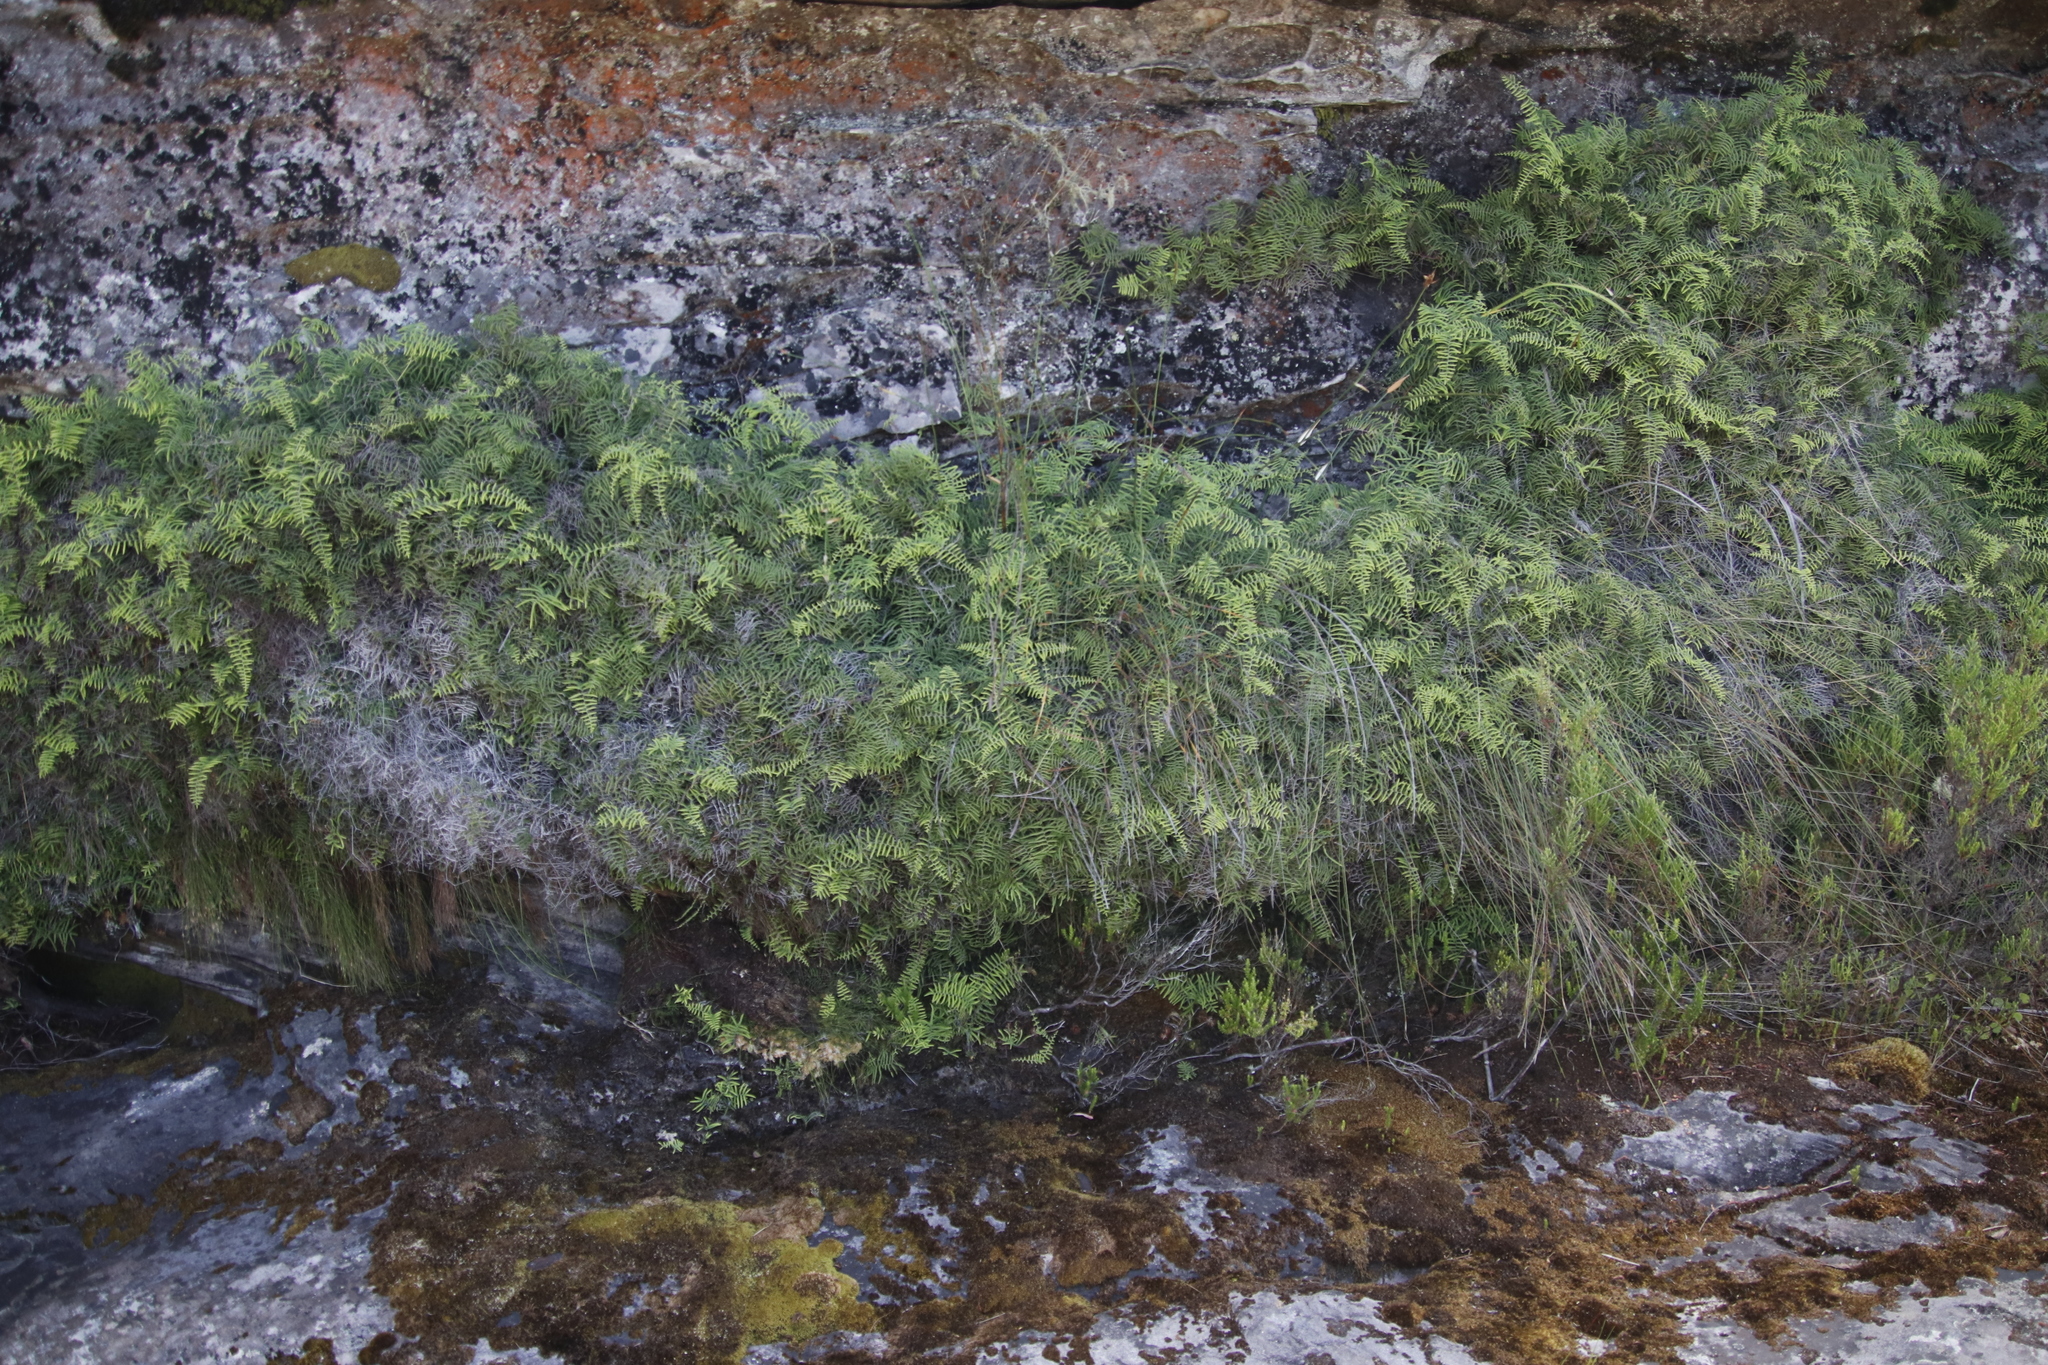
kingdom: Plantae
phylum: Tracheophyta
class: Polypodiopsida
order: Gleicheniales
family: Gleicheniaceae
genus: Gleichenia
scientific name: Gleichenia polypodioides
